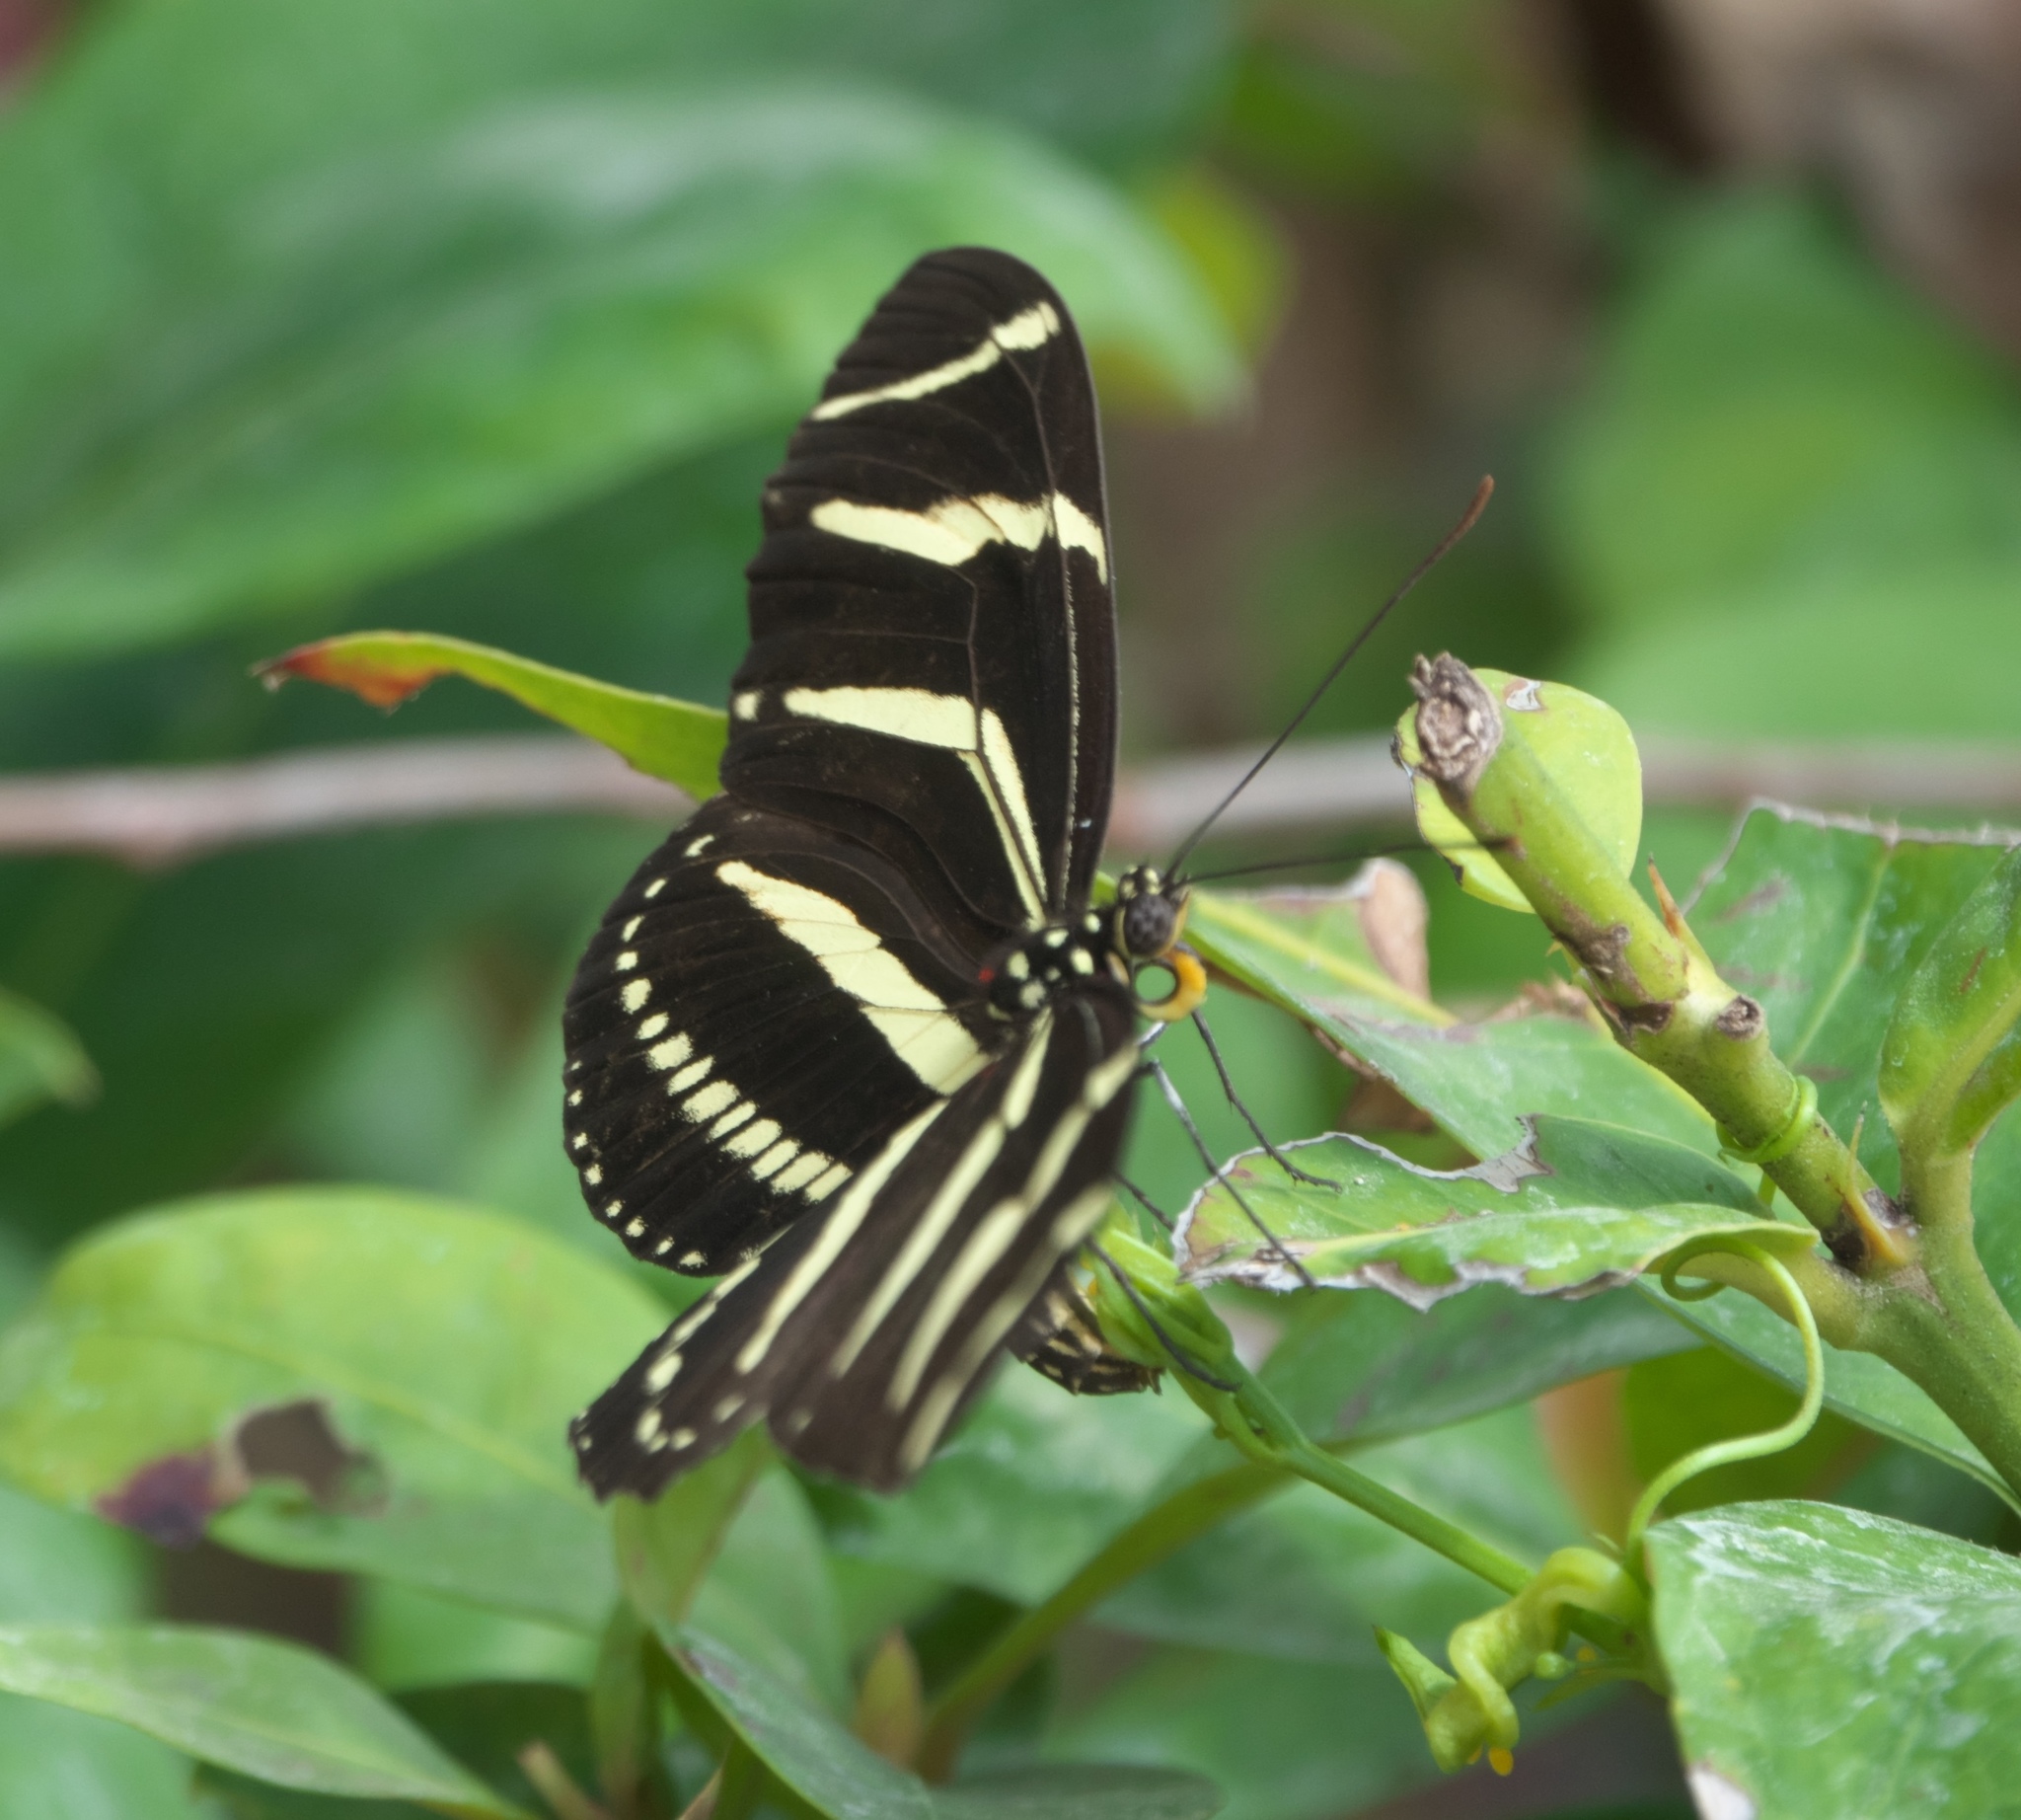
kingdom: Animalia
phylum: Arthropoda
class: Insecta
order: Lepidoptera
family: Nymphalidae
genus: Heliconius
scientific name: Heliconius charithonia
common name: Zebra long wing
